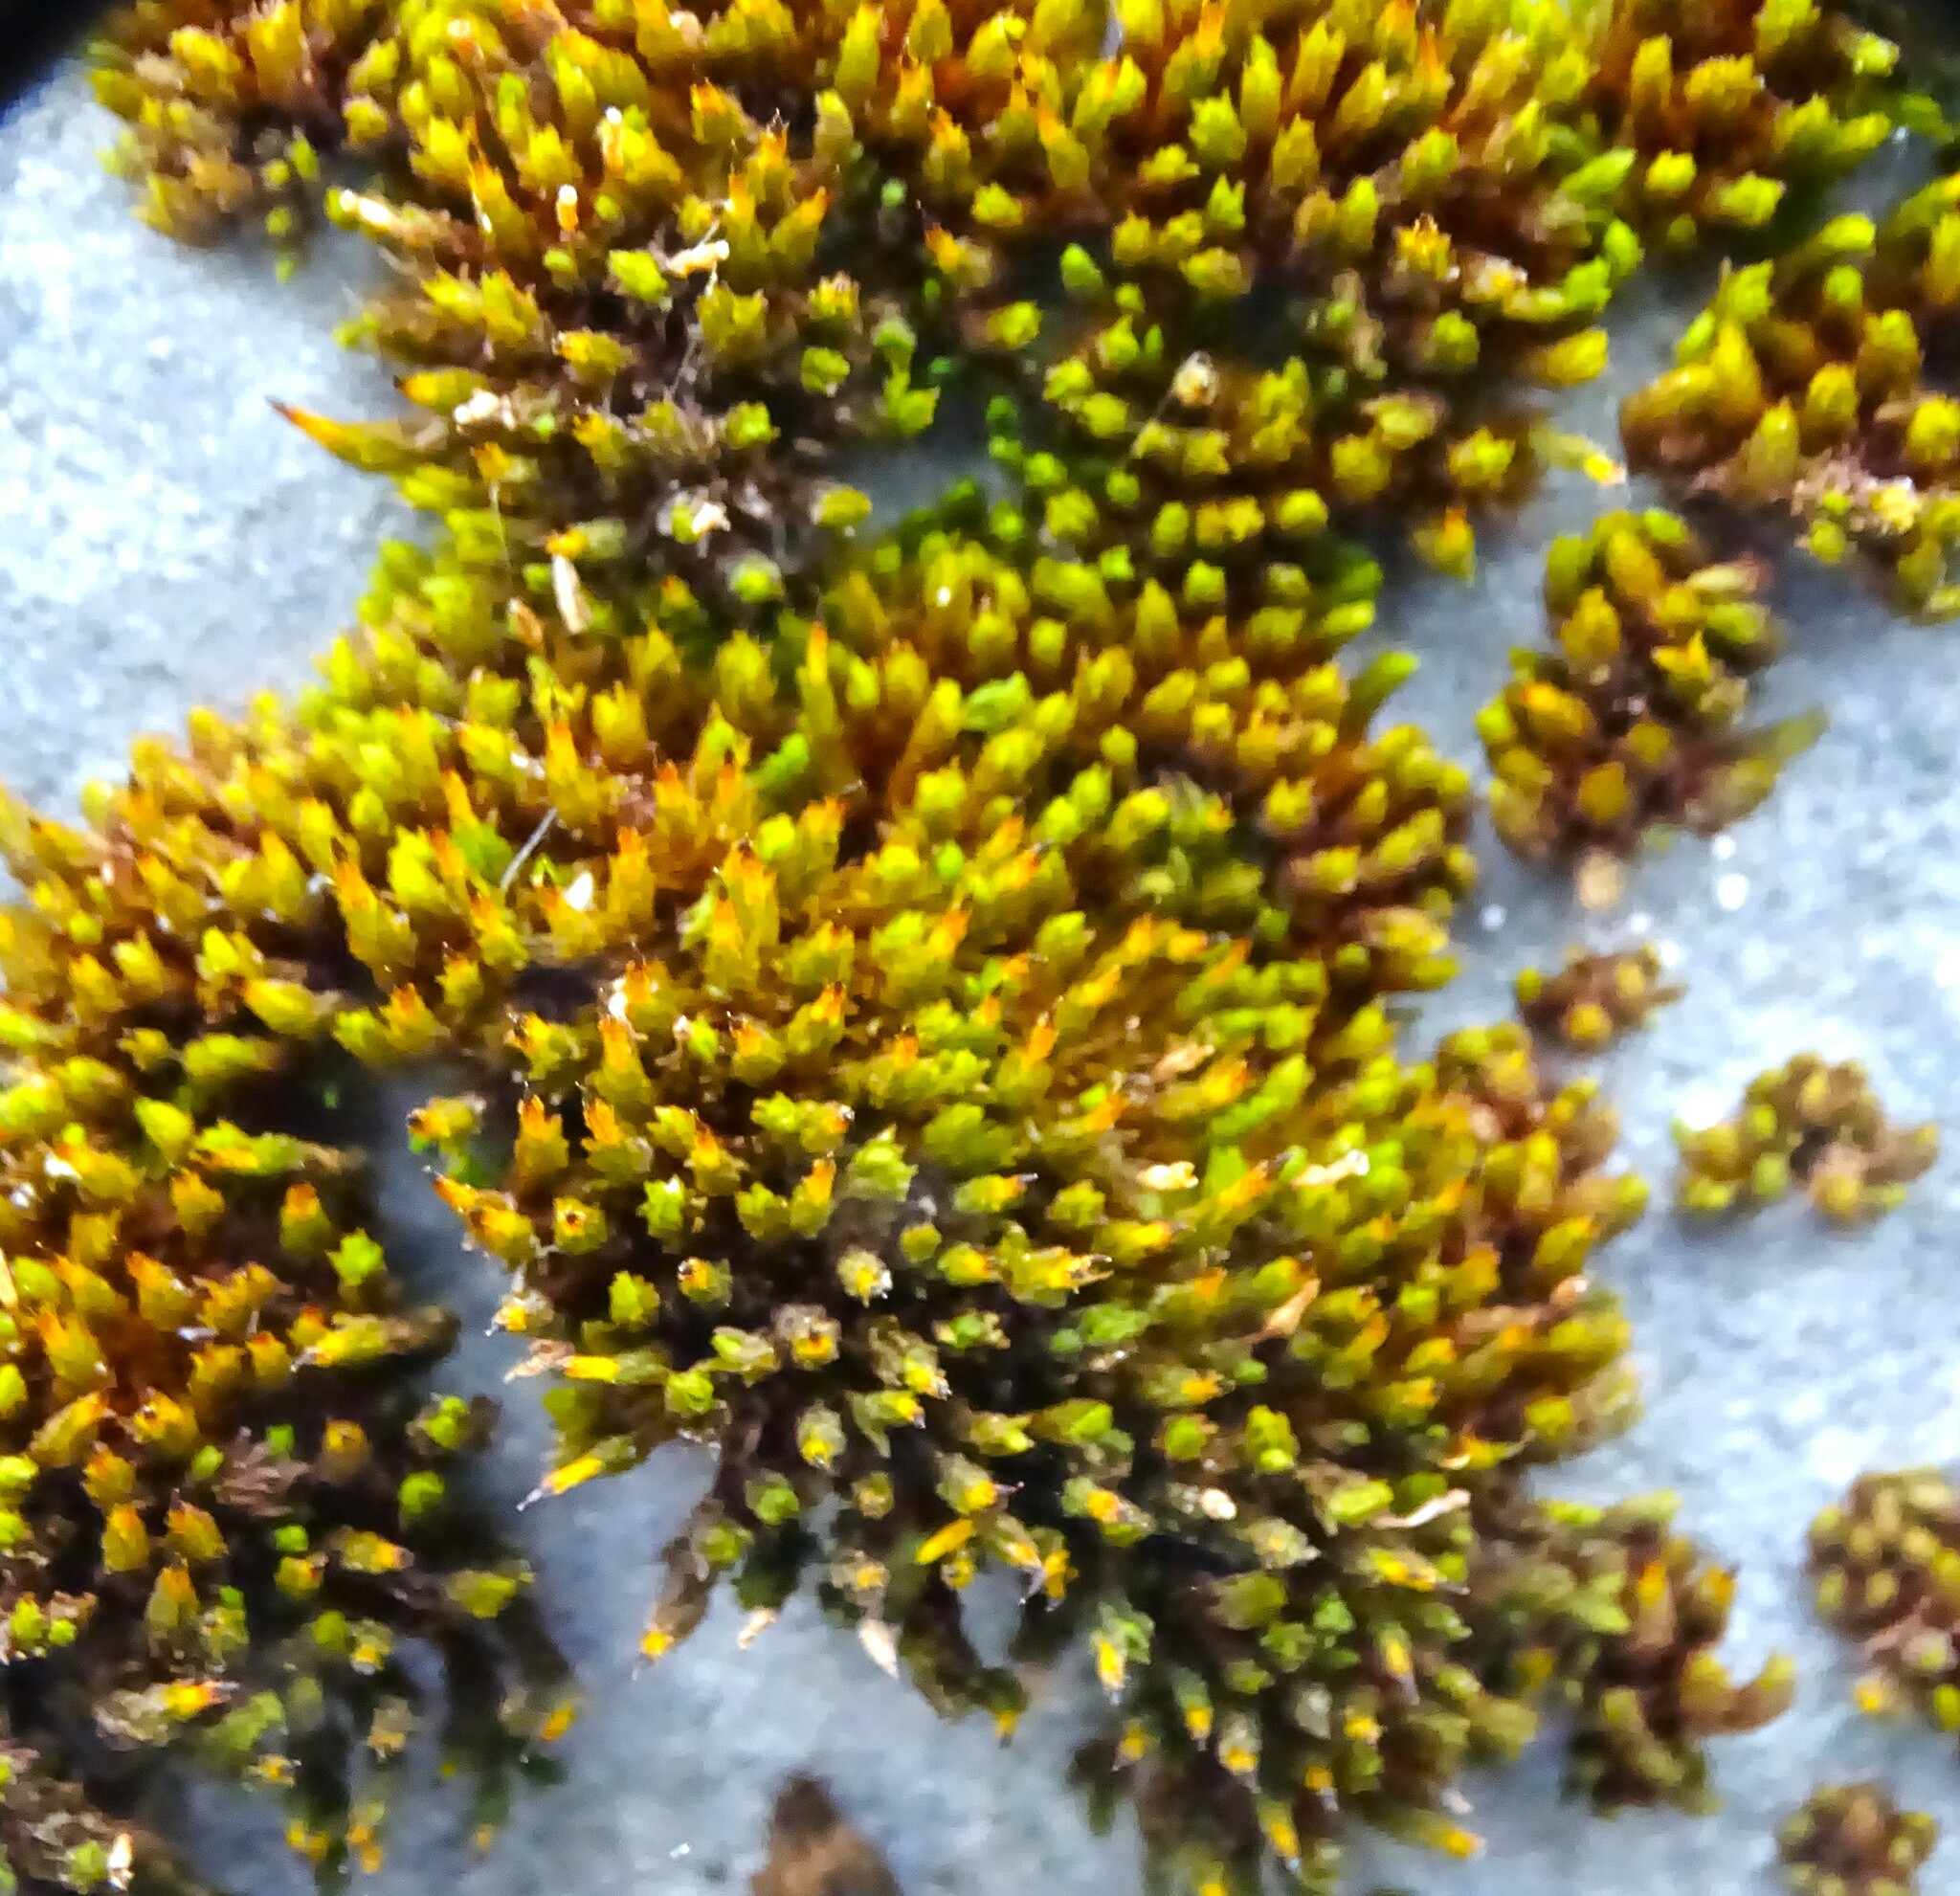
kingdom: Plantae
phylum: Bryophyta
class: Bryopsida
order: Orthotrichales
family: Orthotrichaceae
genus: Ulota
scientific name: Ulota crispa
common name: Crisped pincushion moss
